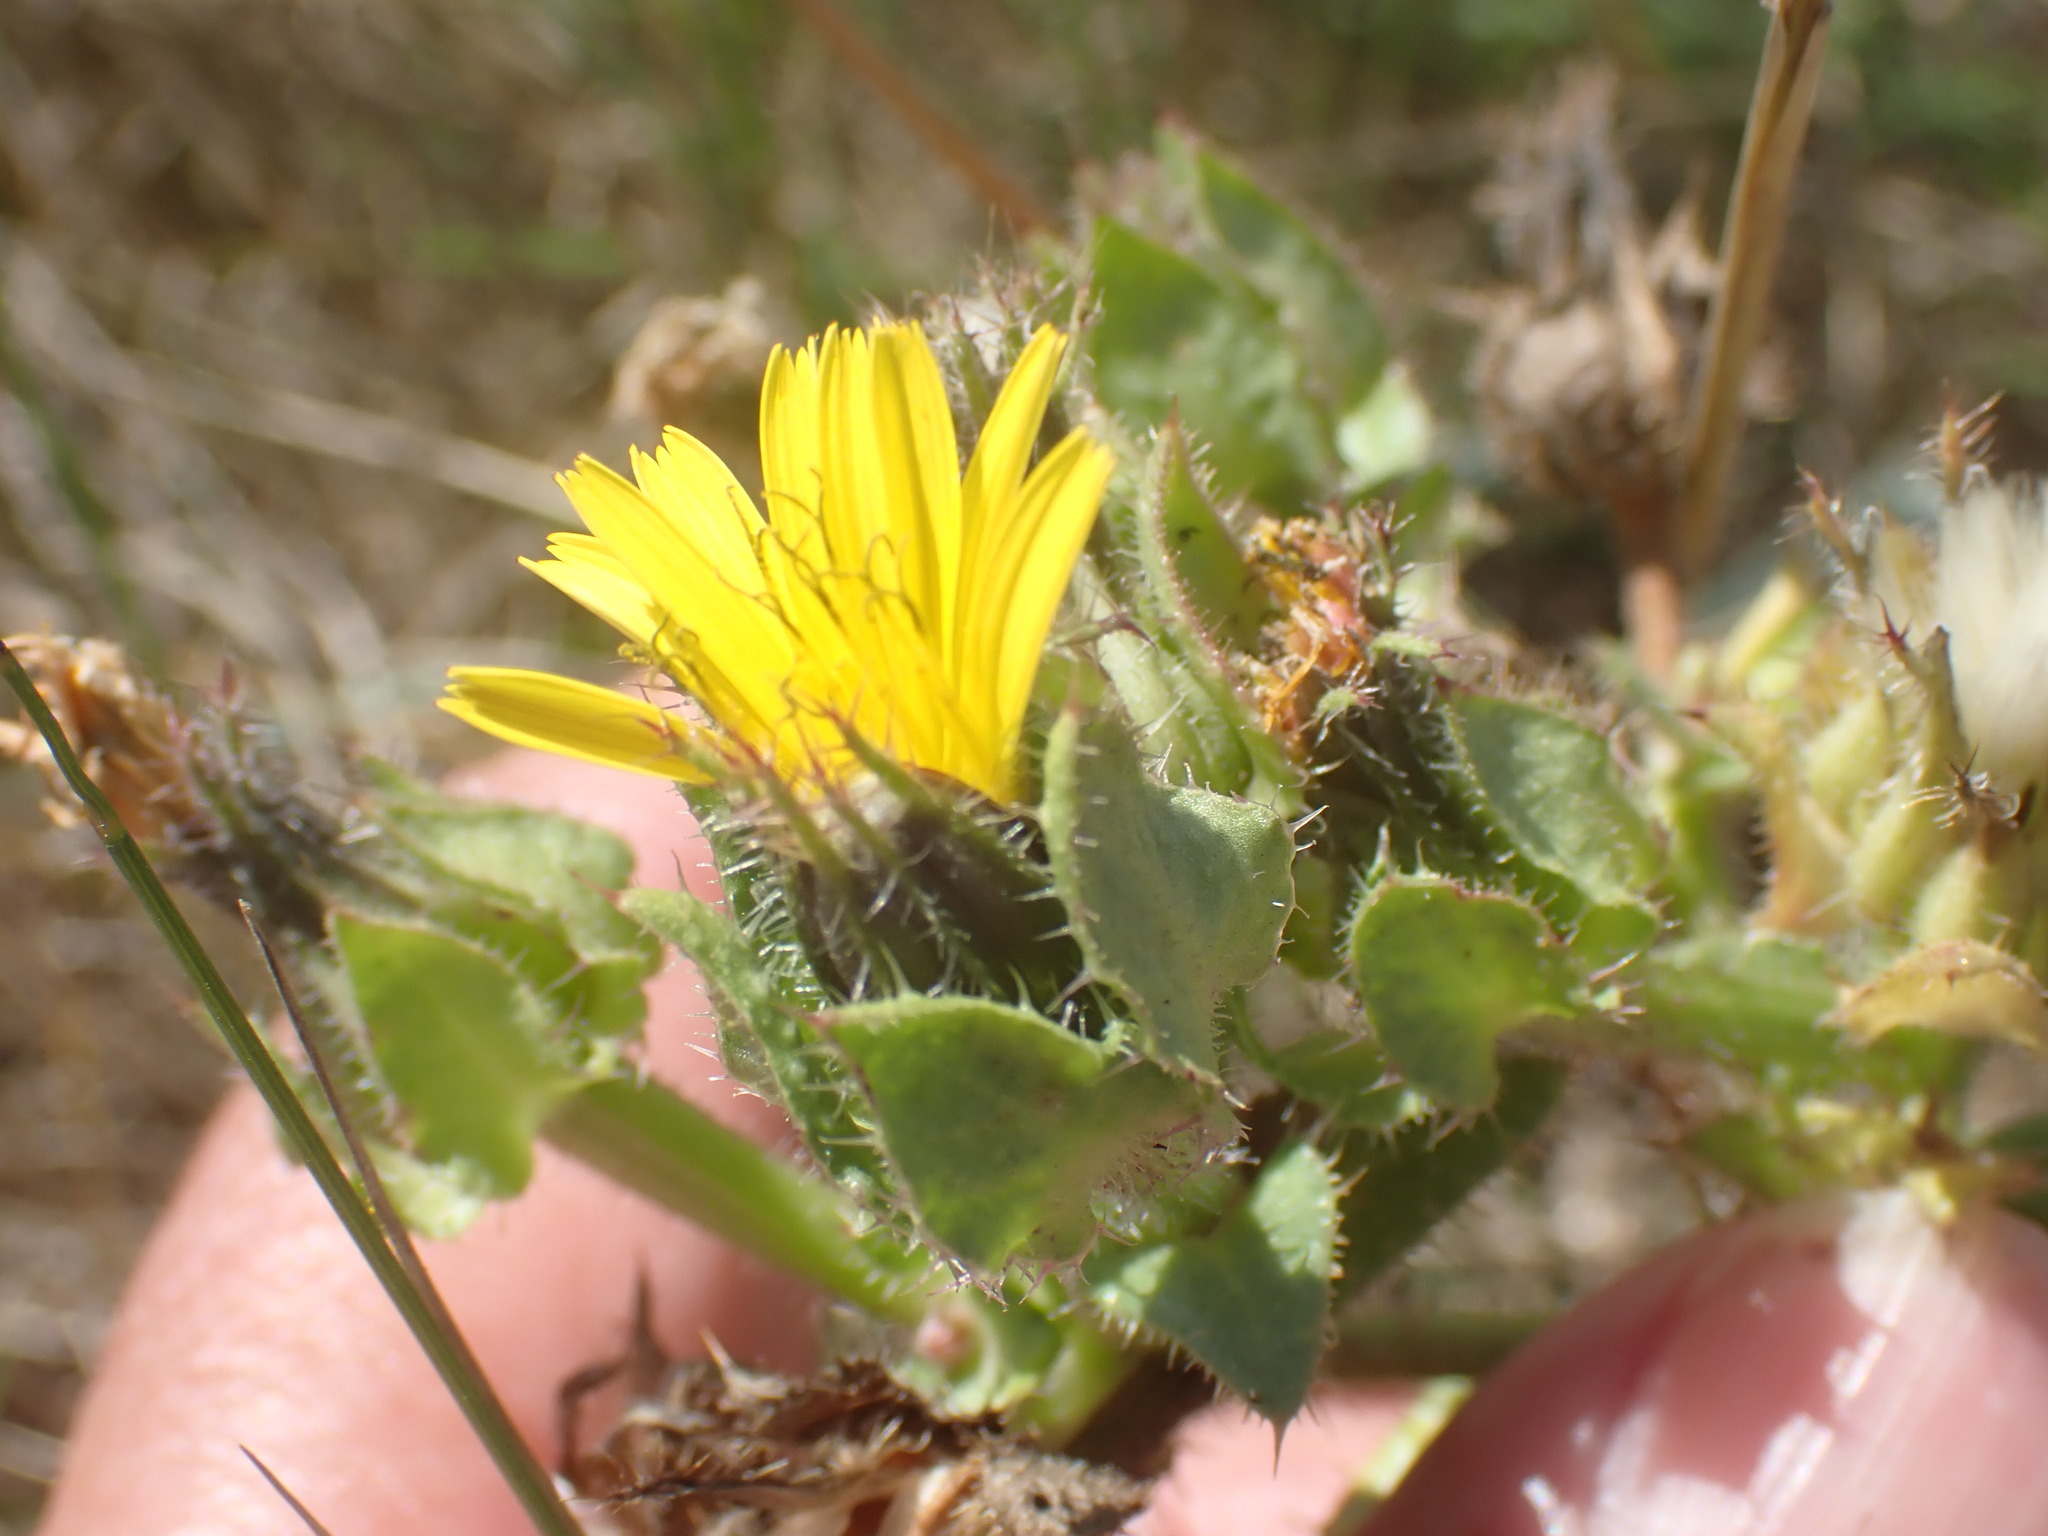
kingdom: Plantae
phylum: Tracheophyta
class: Magnoliopsida
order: Asterales
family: Asteraceae
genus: Helminthotheca
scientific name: Helminthotheca echioides
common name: Ox-tongue
